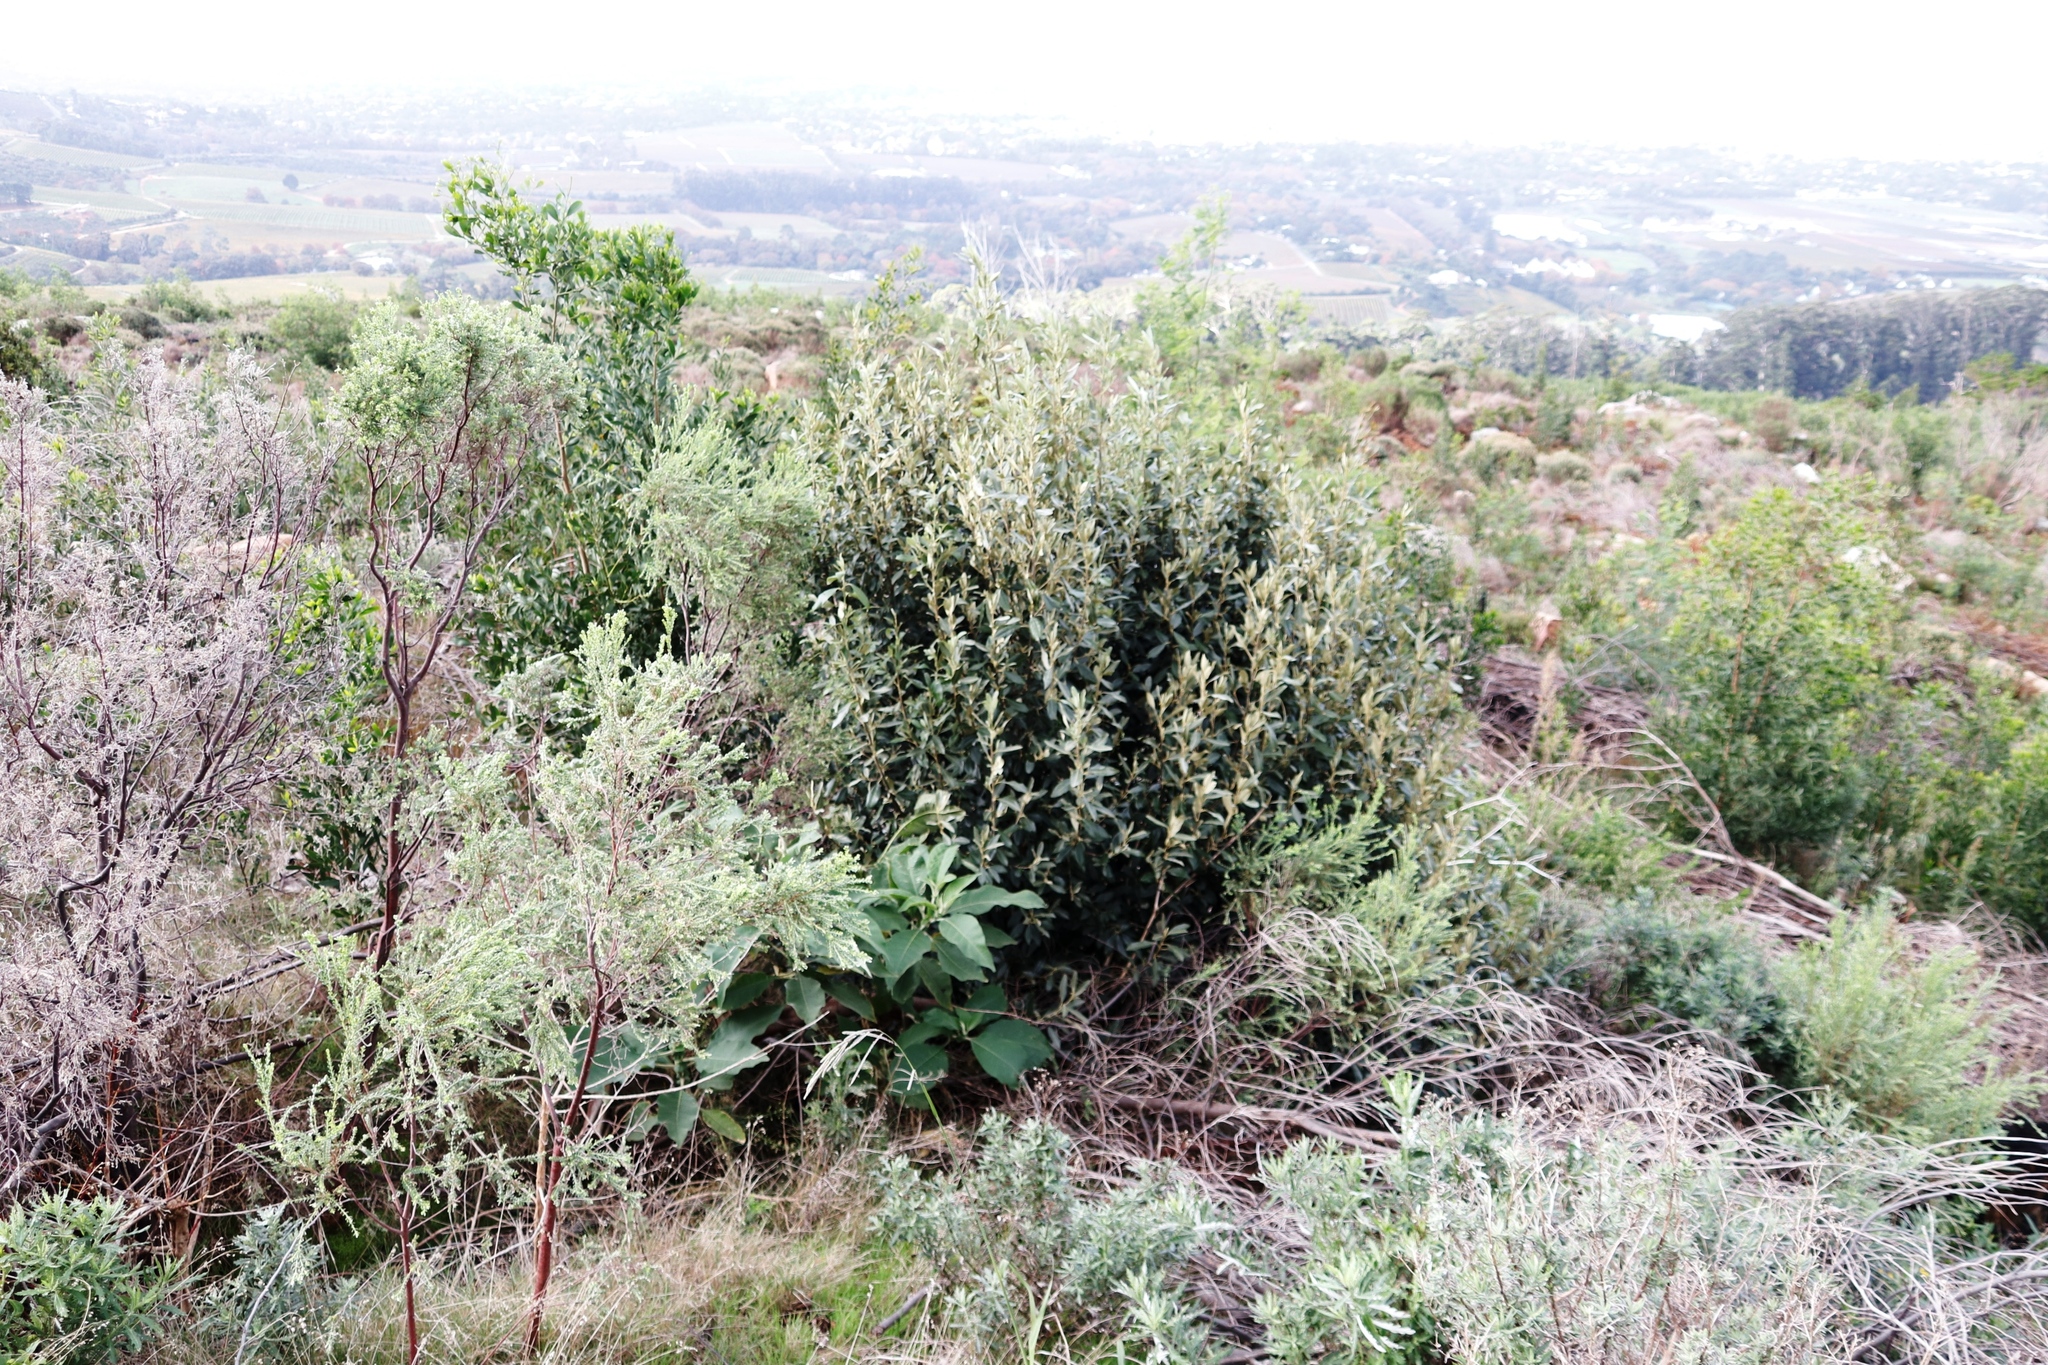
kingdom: Plantae
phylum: Tracheophyta
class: Magnoliopsida
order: Malpighiales
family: Achariaceae
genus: Kiggelaria
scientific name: Kiggelaria africana
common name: Wild peach
